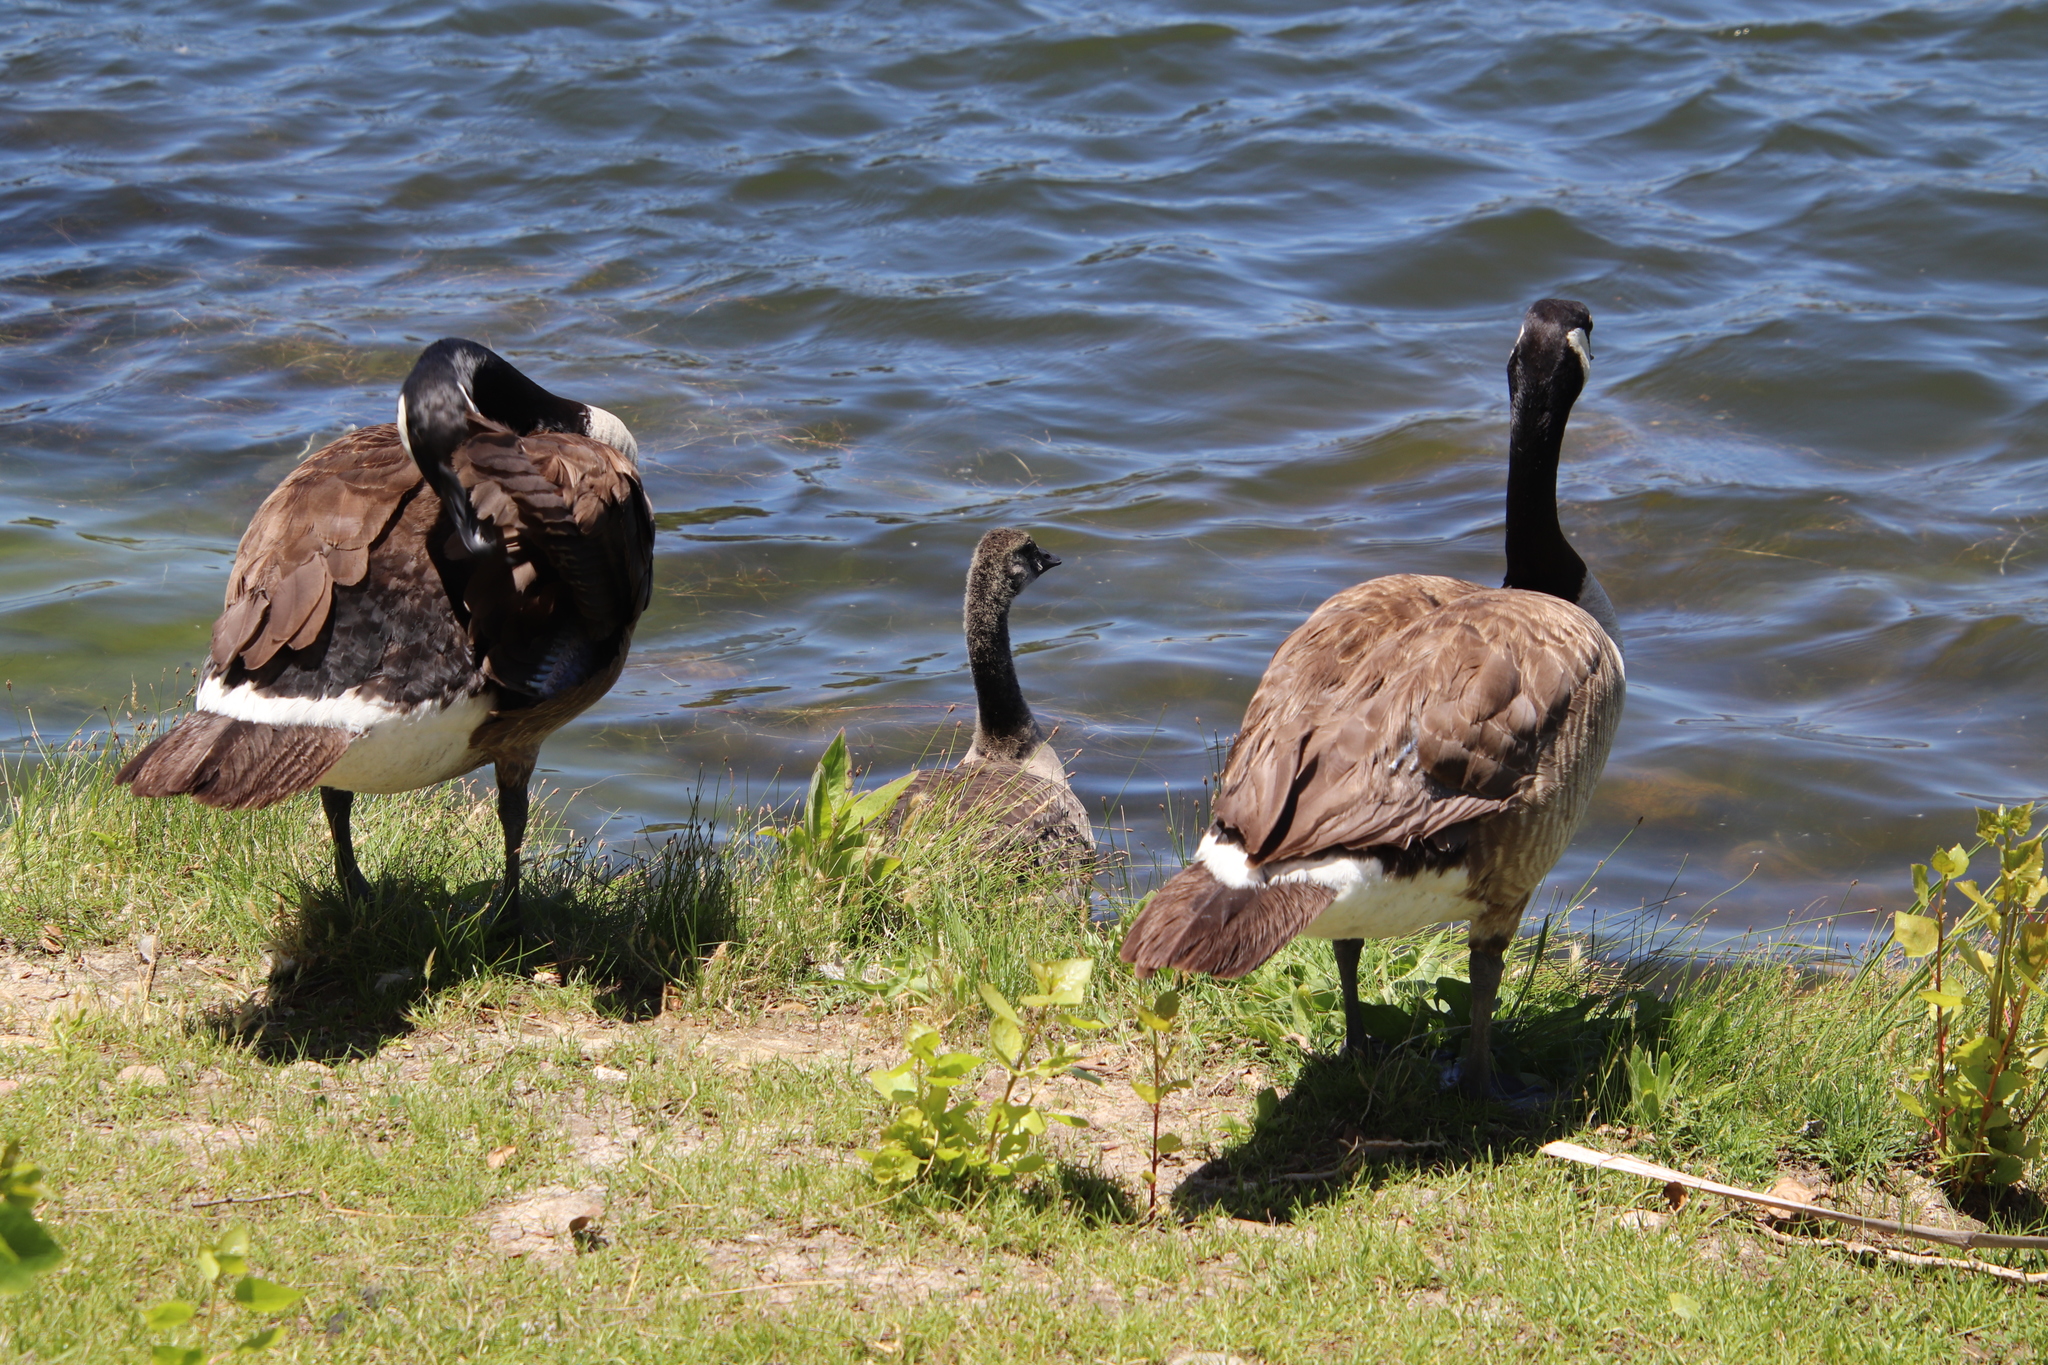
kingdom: Animalia
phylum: Chordata
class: Aves
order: Anseriformes
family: Anatidae
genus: Branta
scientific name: Branta canadensis
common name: Canada goose
